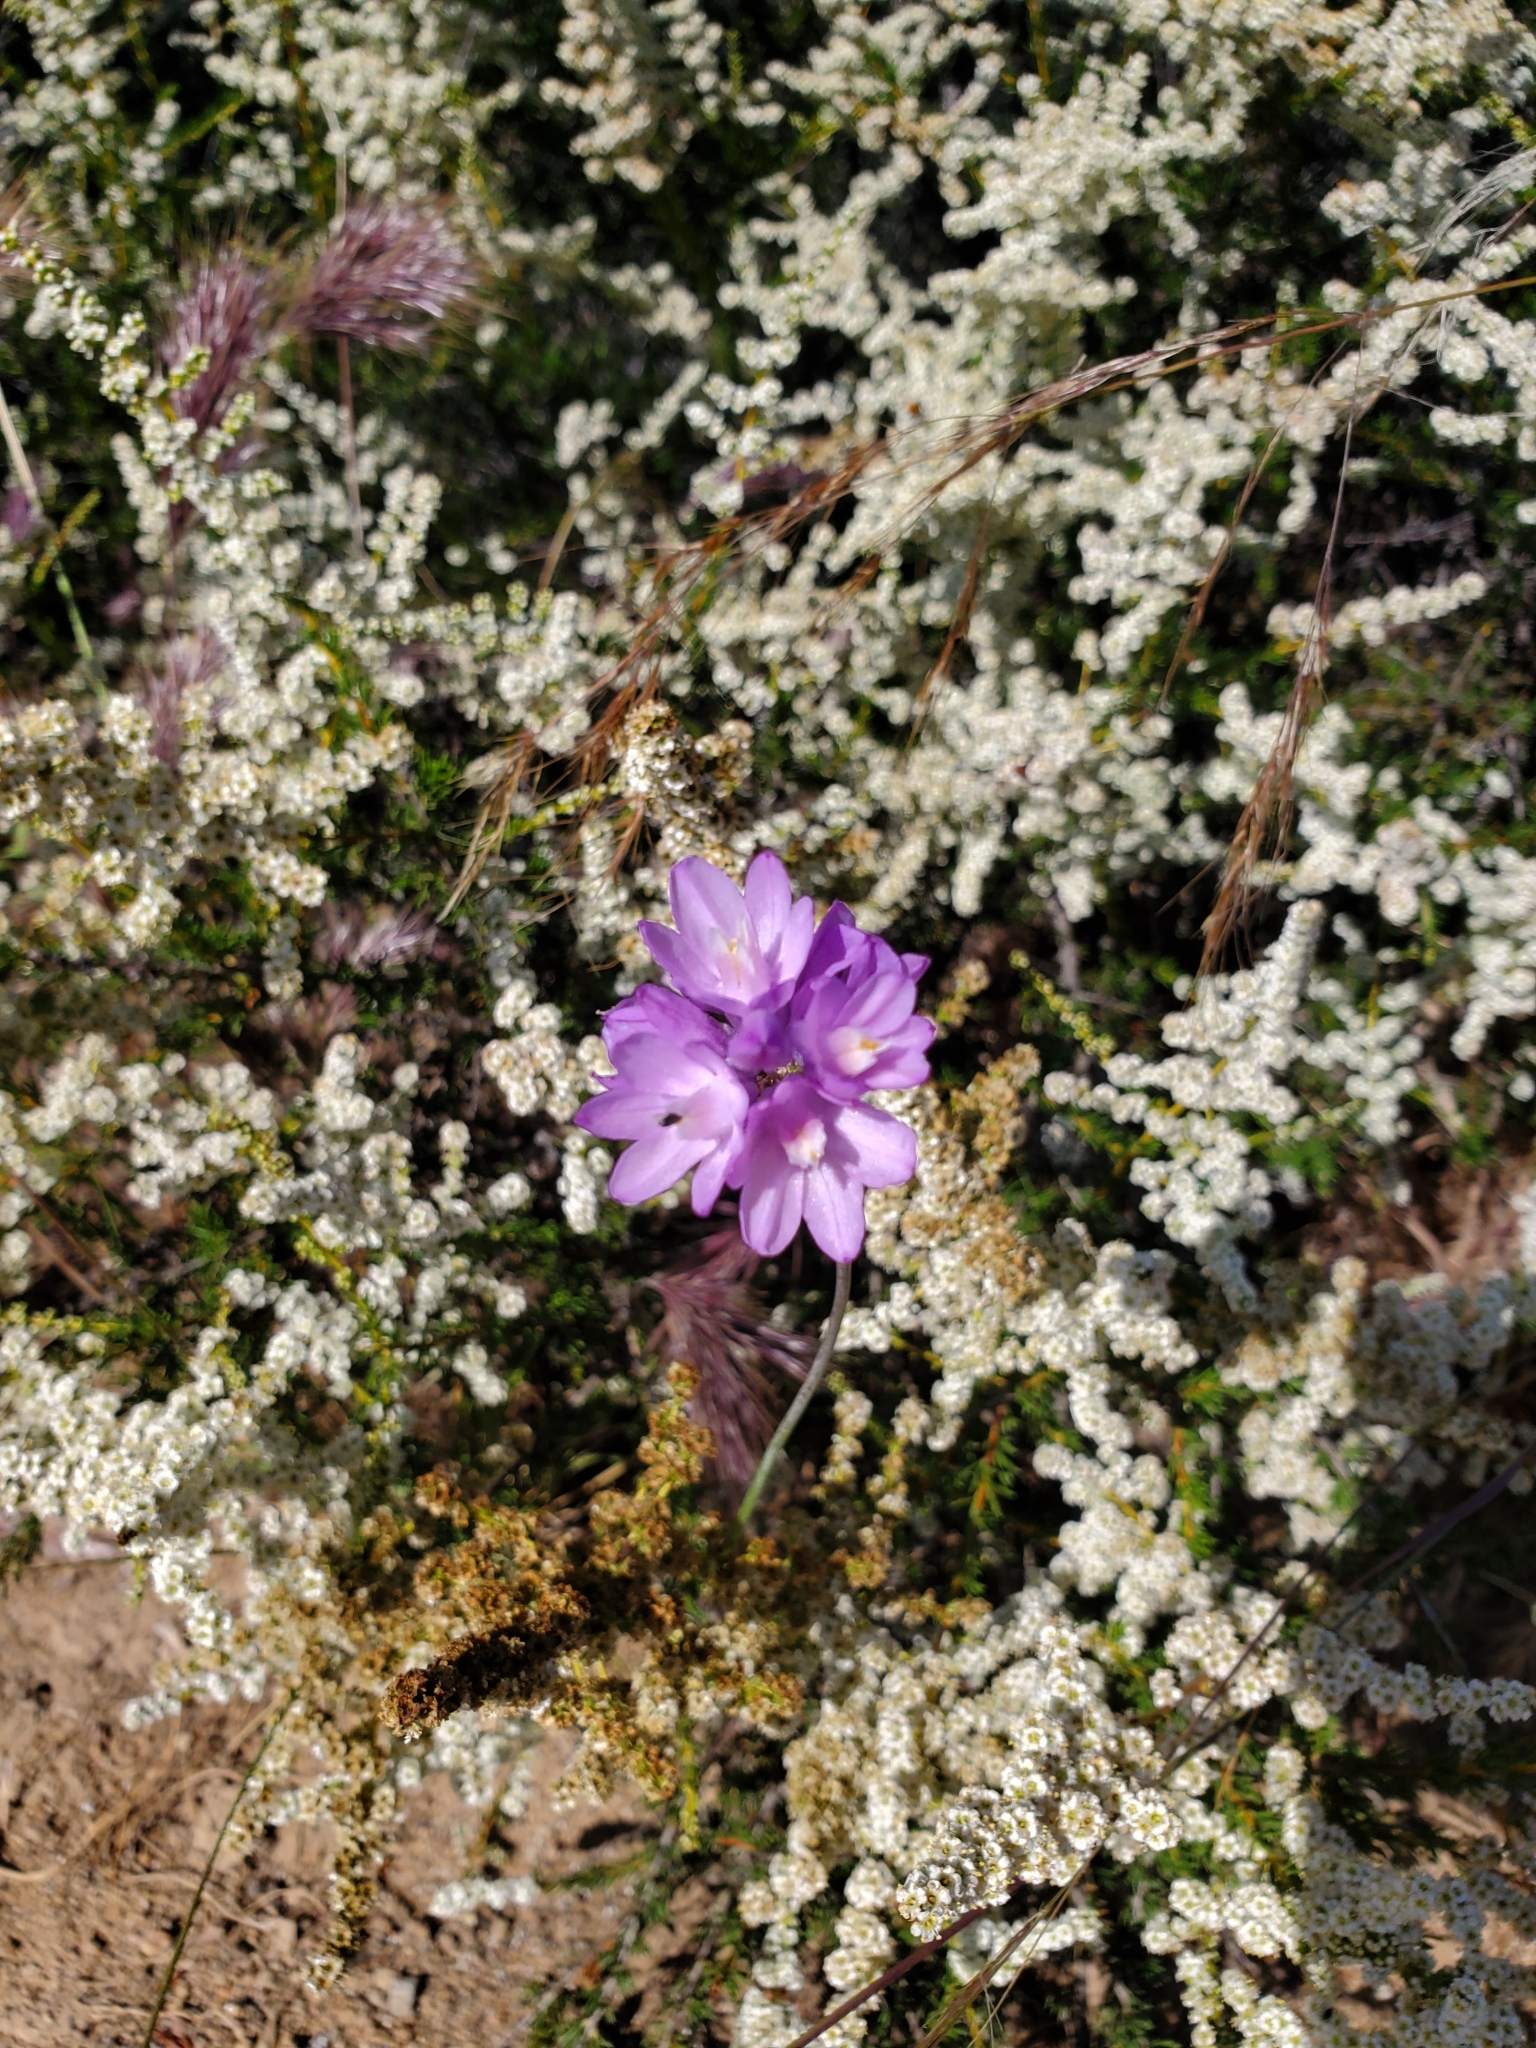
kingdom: Plantae
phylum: Tracheophyta
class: Liliopsida
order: Asparagales
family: Asparagaceae
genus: Dipterostemon
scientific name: Dipterostemon capitatus
